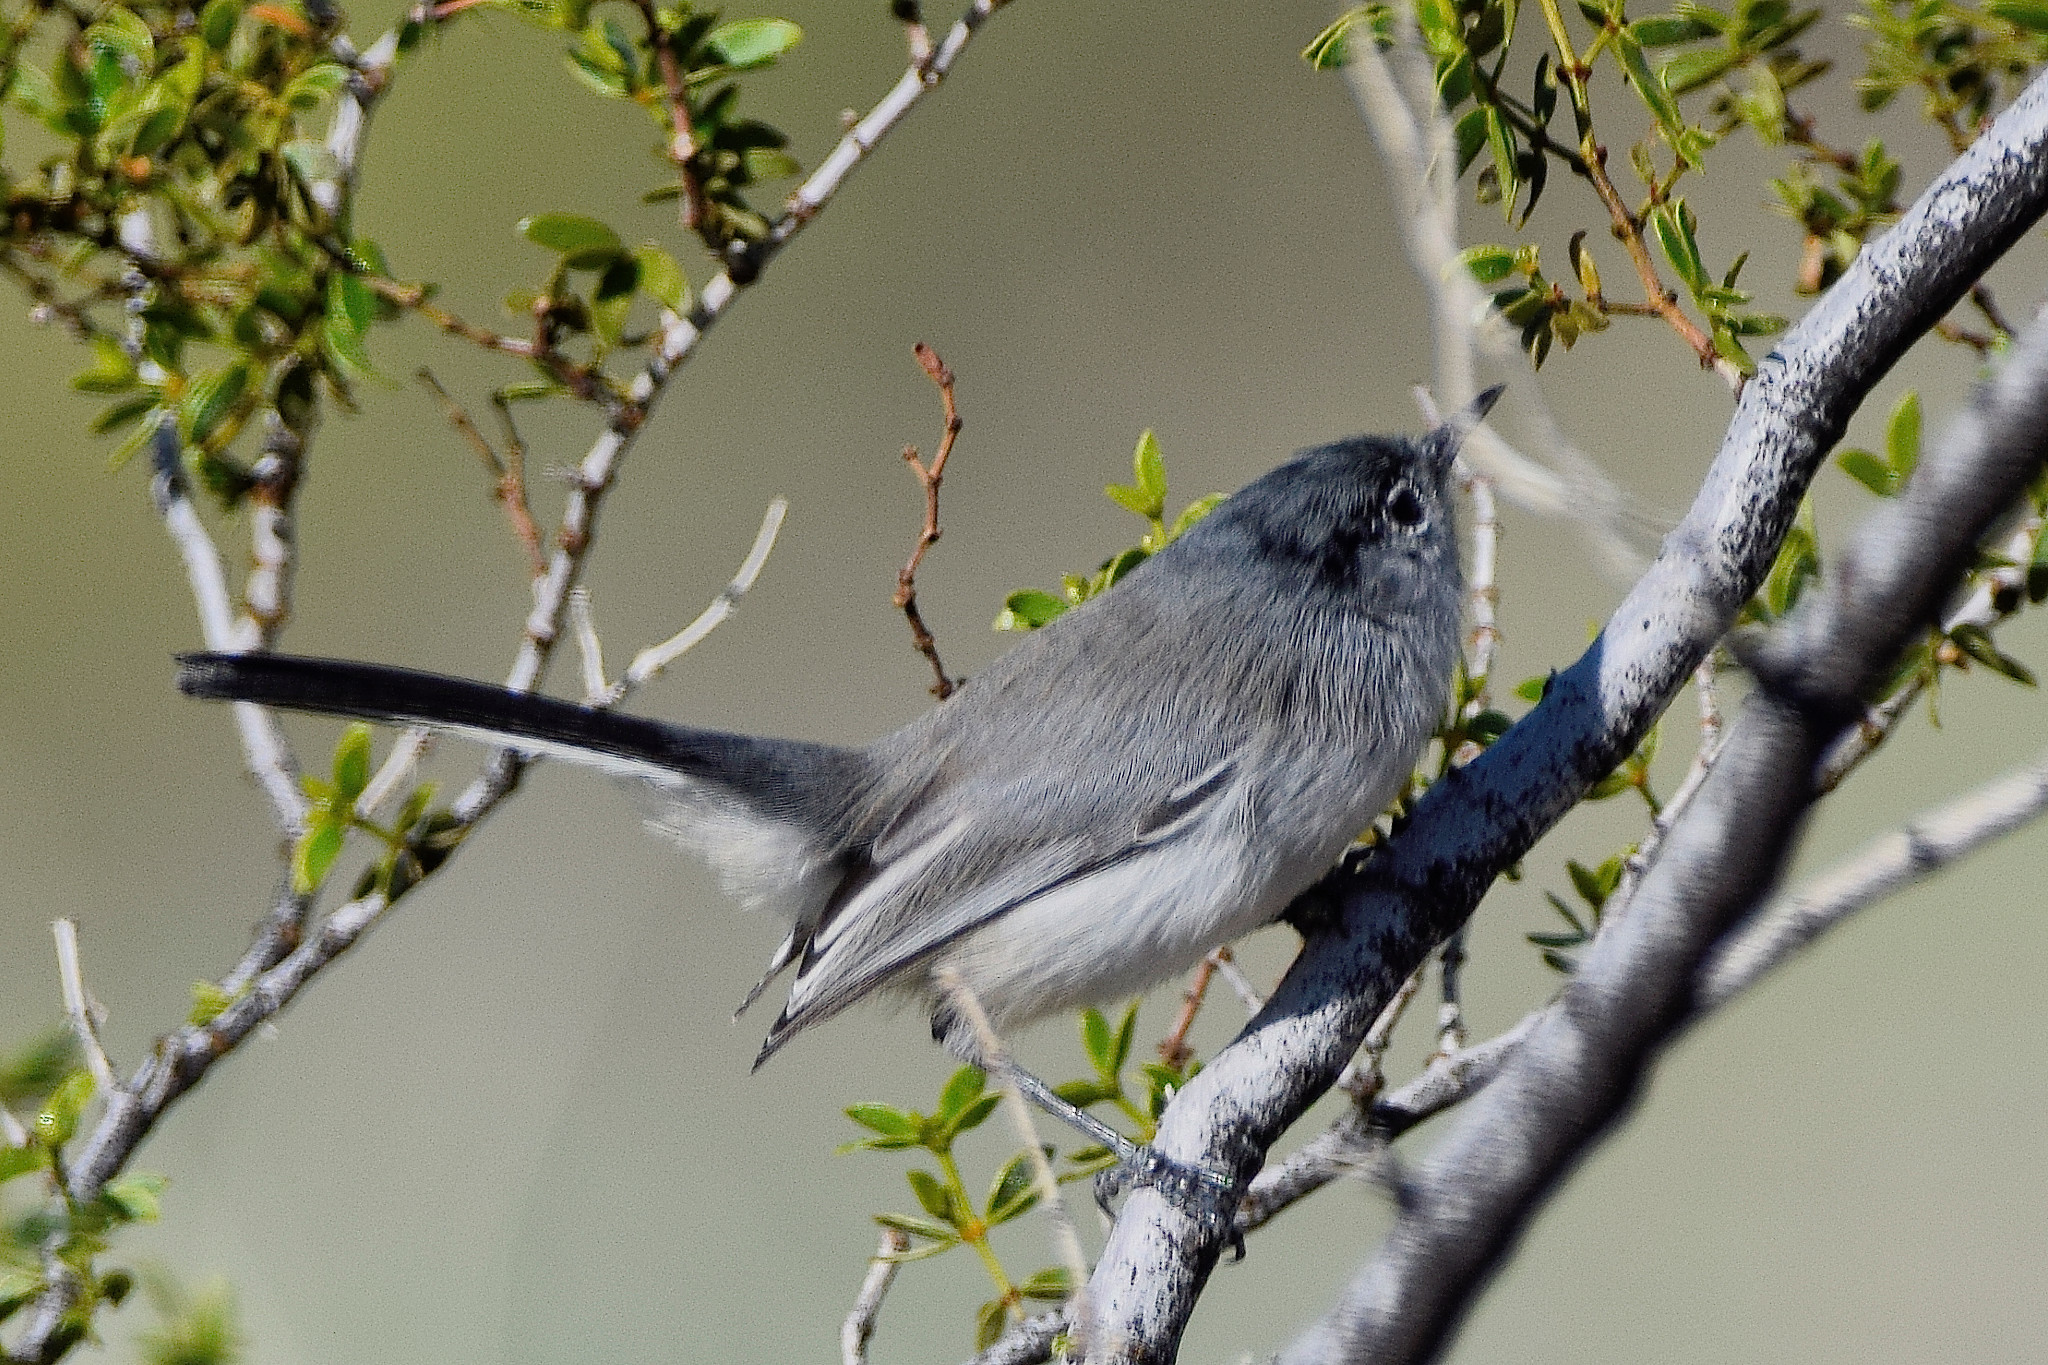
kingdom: Animalia
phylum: Chordata
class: Aves
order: Passeriformes
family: Polioptilidae
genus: Polioptila
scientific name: Polioptila melanura
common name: Black-tailed gnatcatcher
